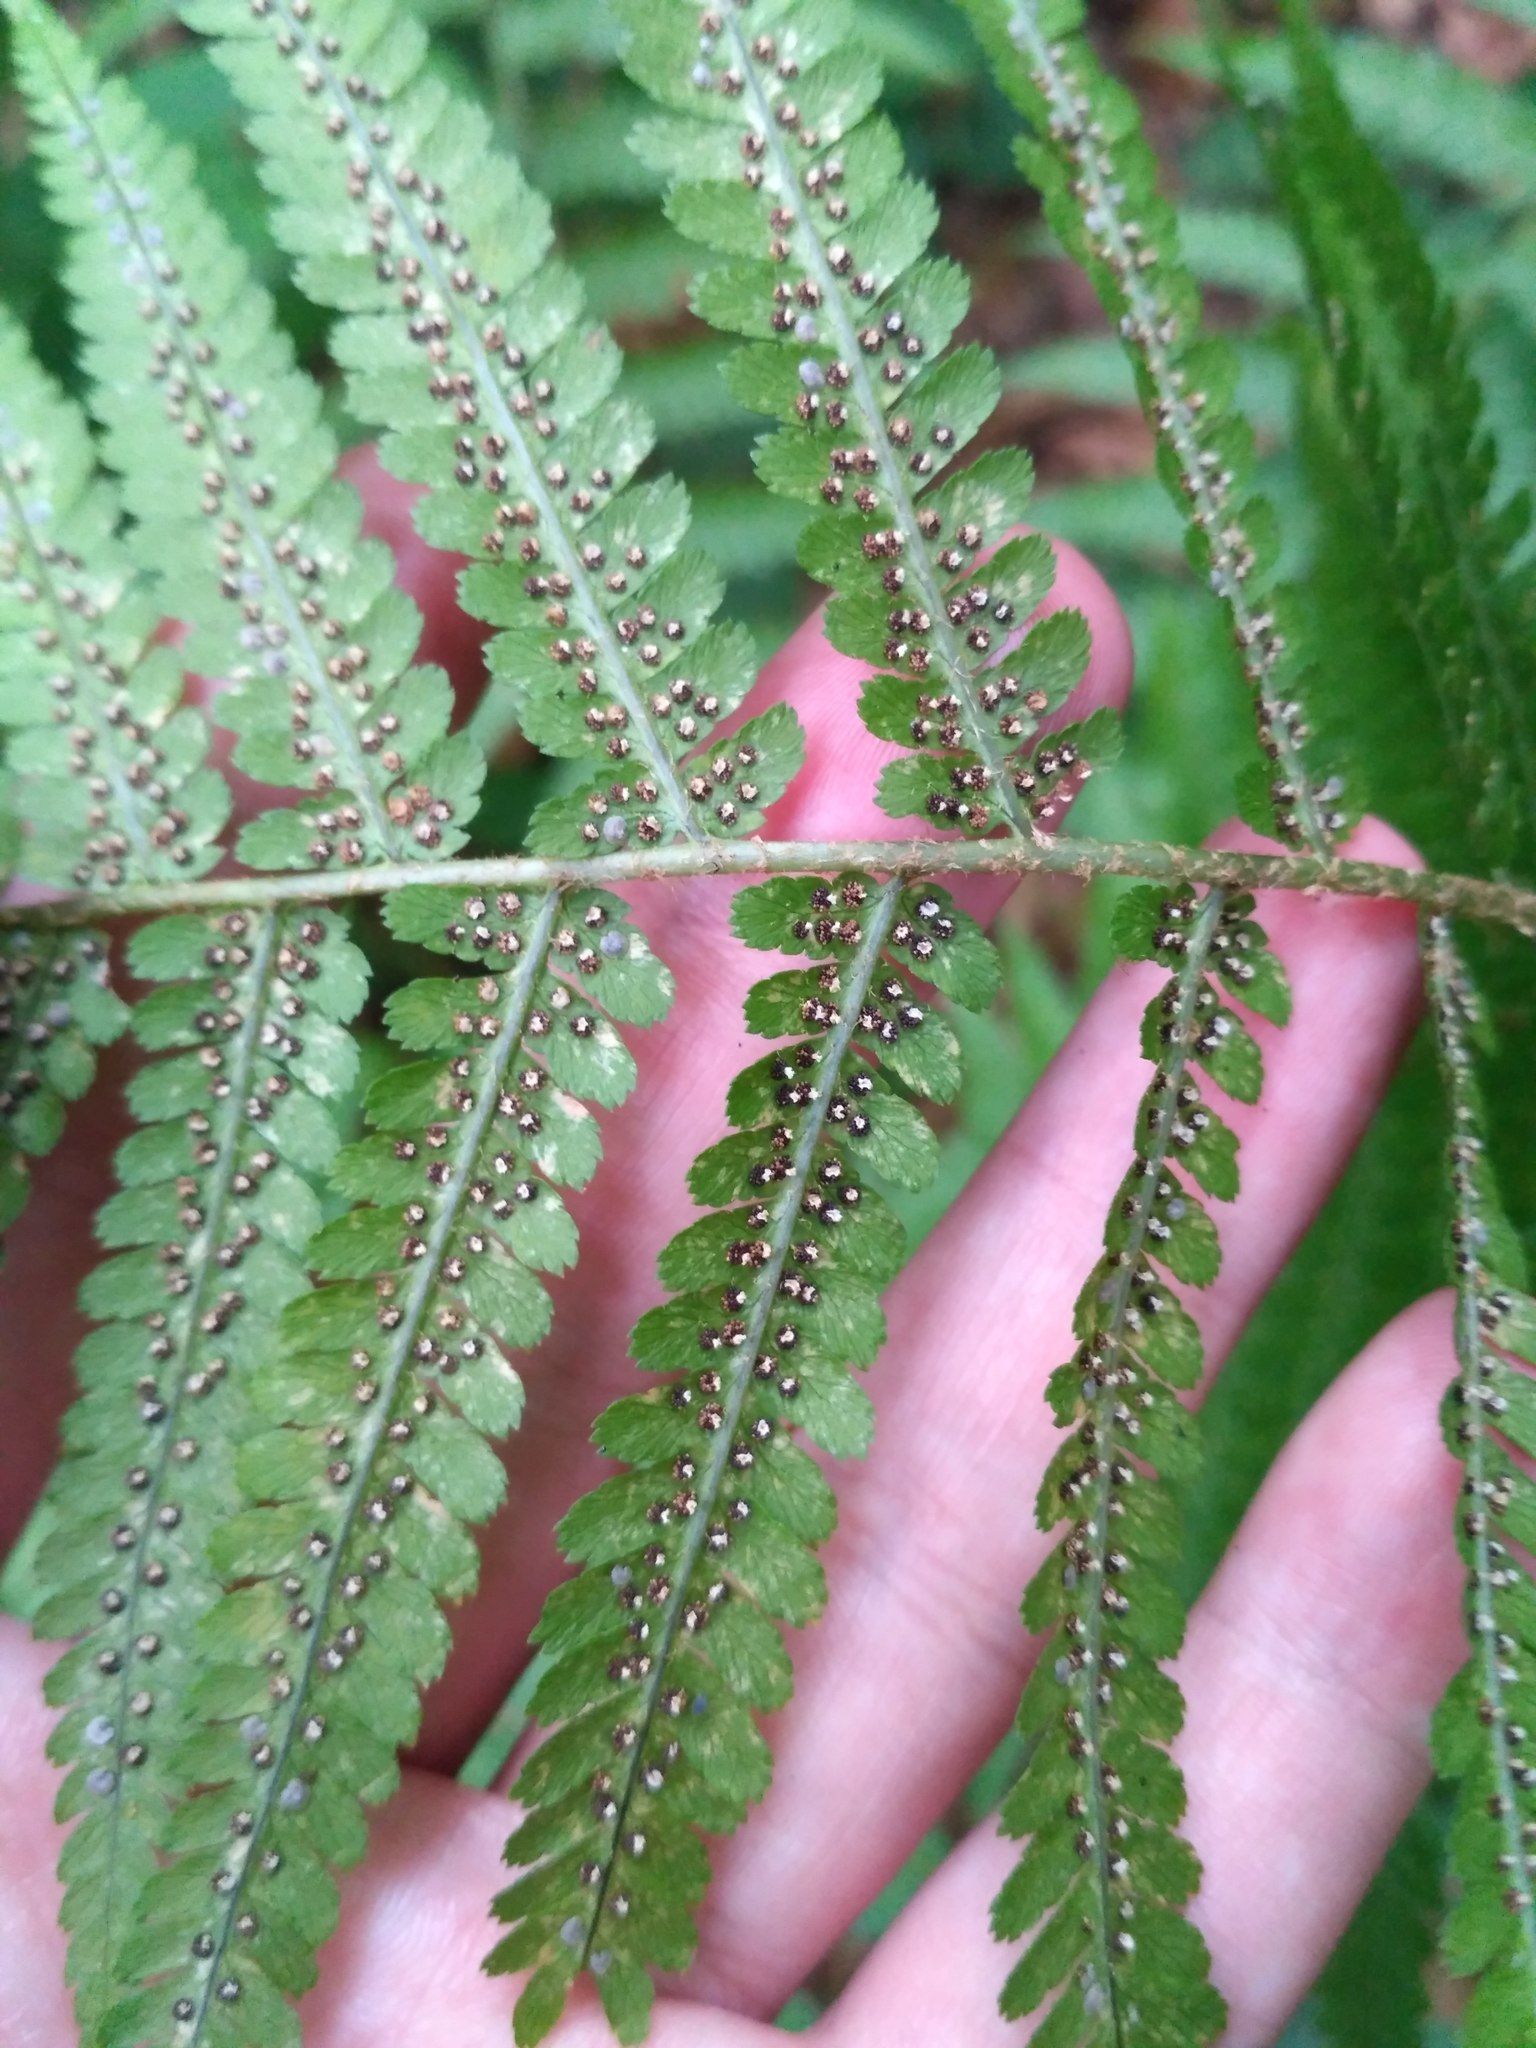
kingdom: Plantae
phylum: Tracheophyta
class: Polypodiopsida
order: Polypodiales
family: Dryopteridaceae
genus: Dryopteris
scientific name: Dryopteris filix-mas
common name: Male fern
